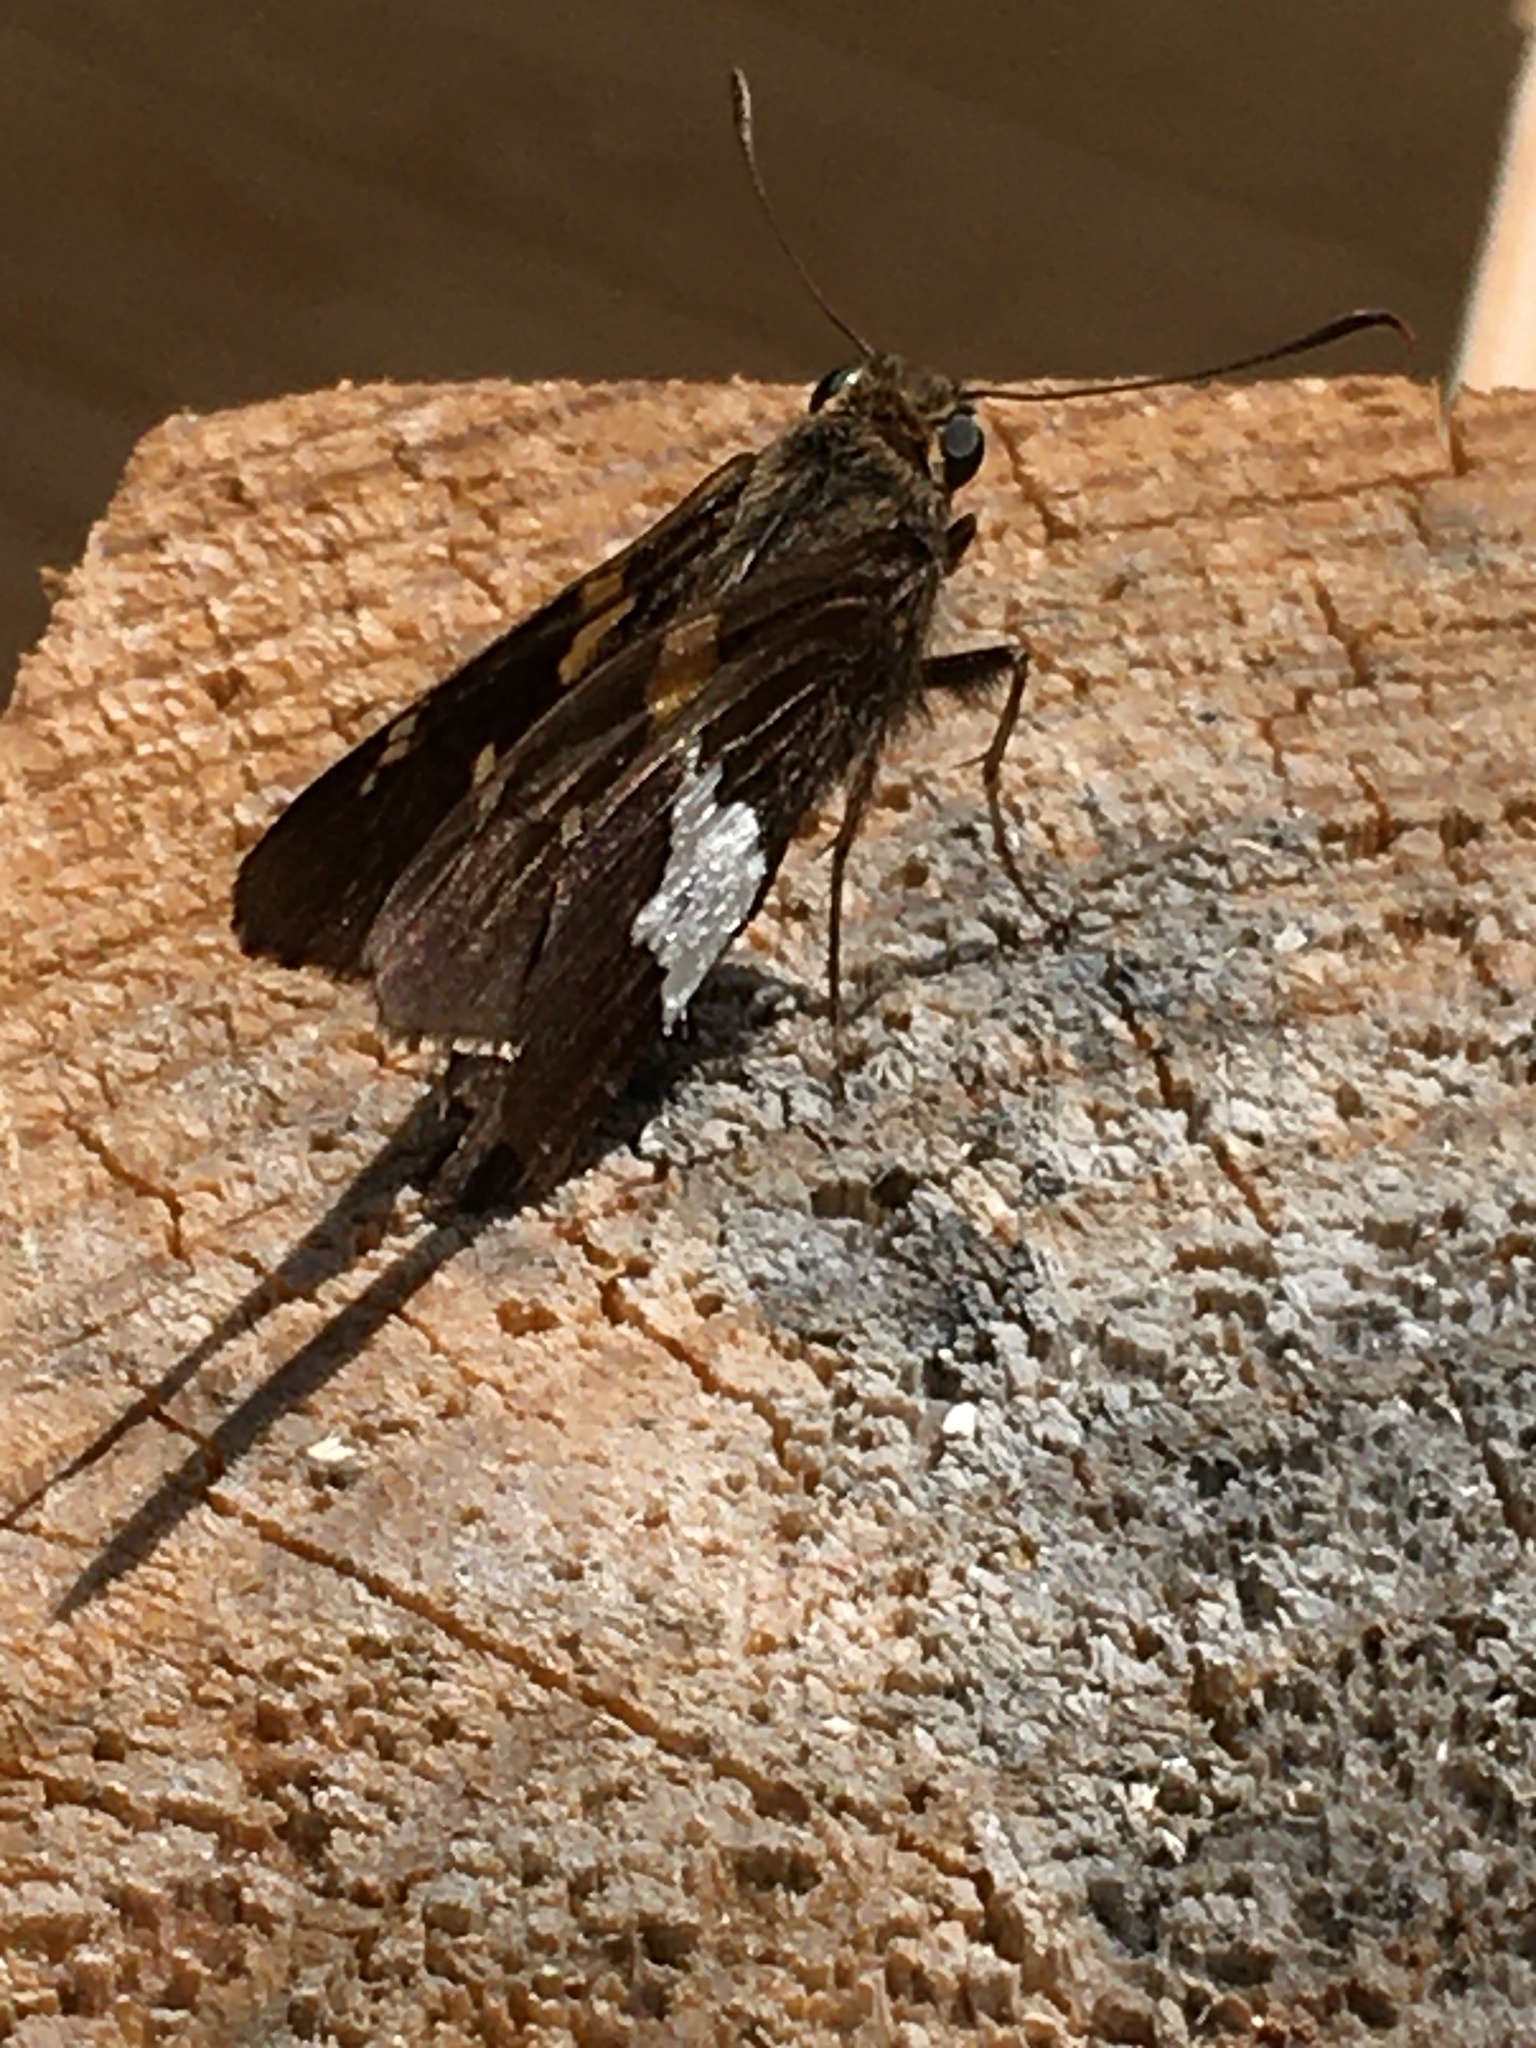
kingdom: Animalia
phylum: Arthropoda
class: Insecta
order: Lepidoptera
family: Hesperiidae
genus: Epargyreus
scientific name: Epargyreus clarus
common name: Silver-spotted skipper
